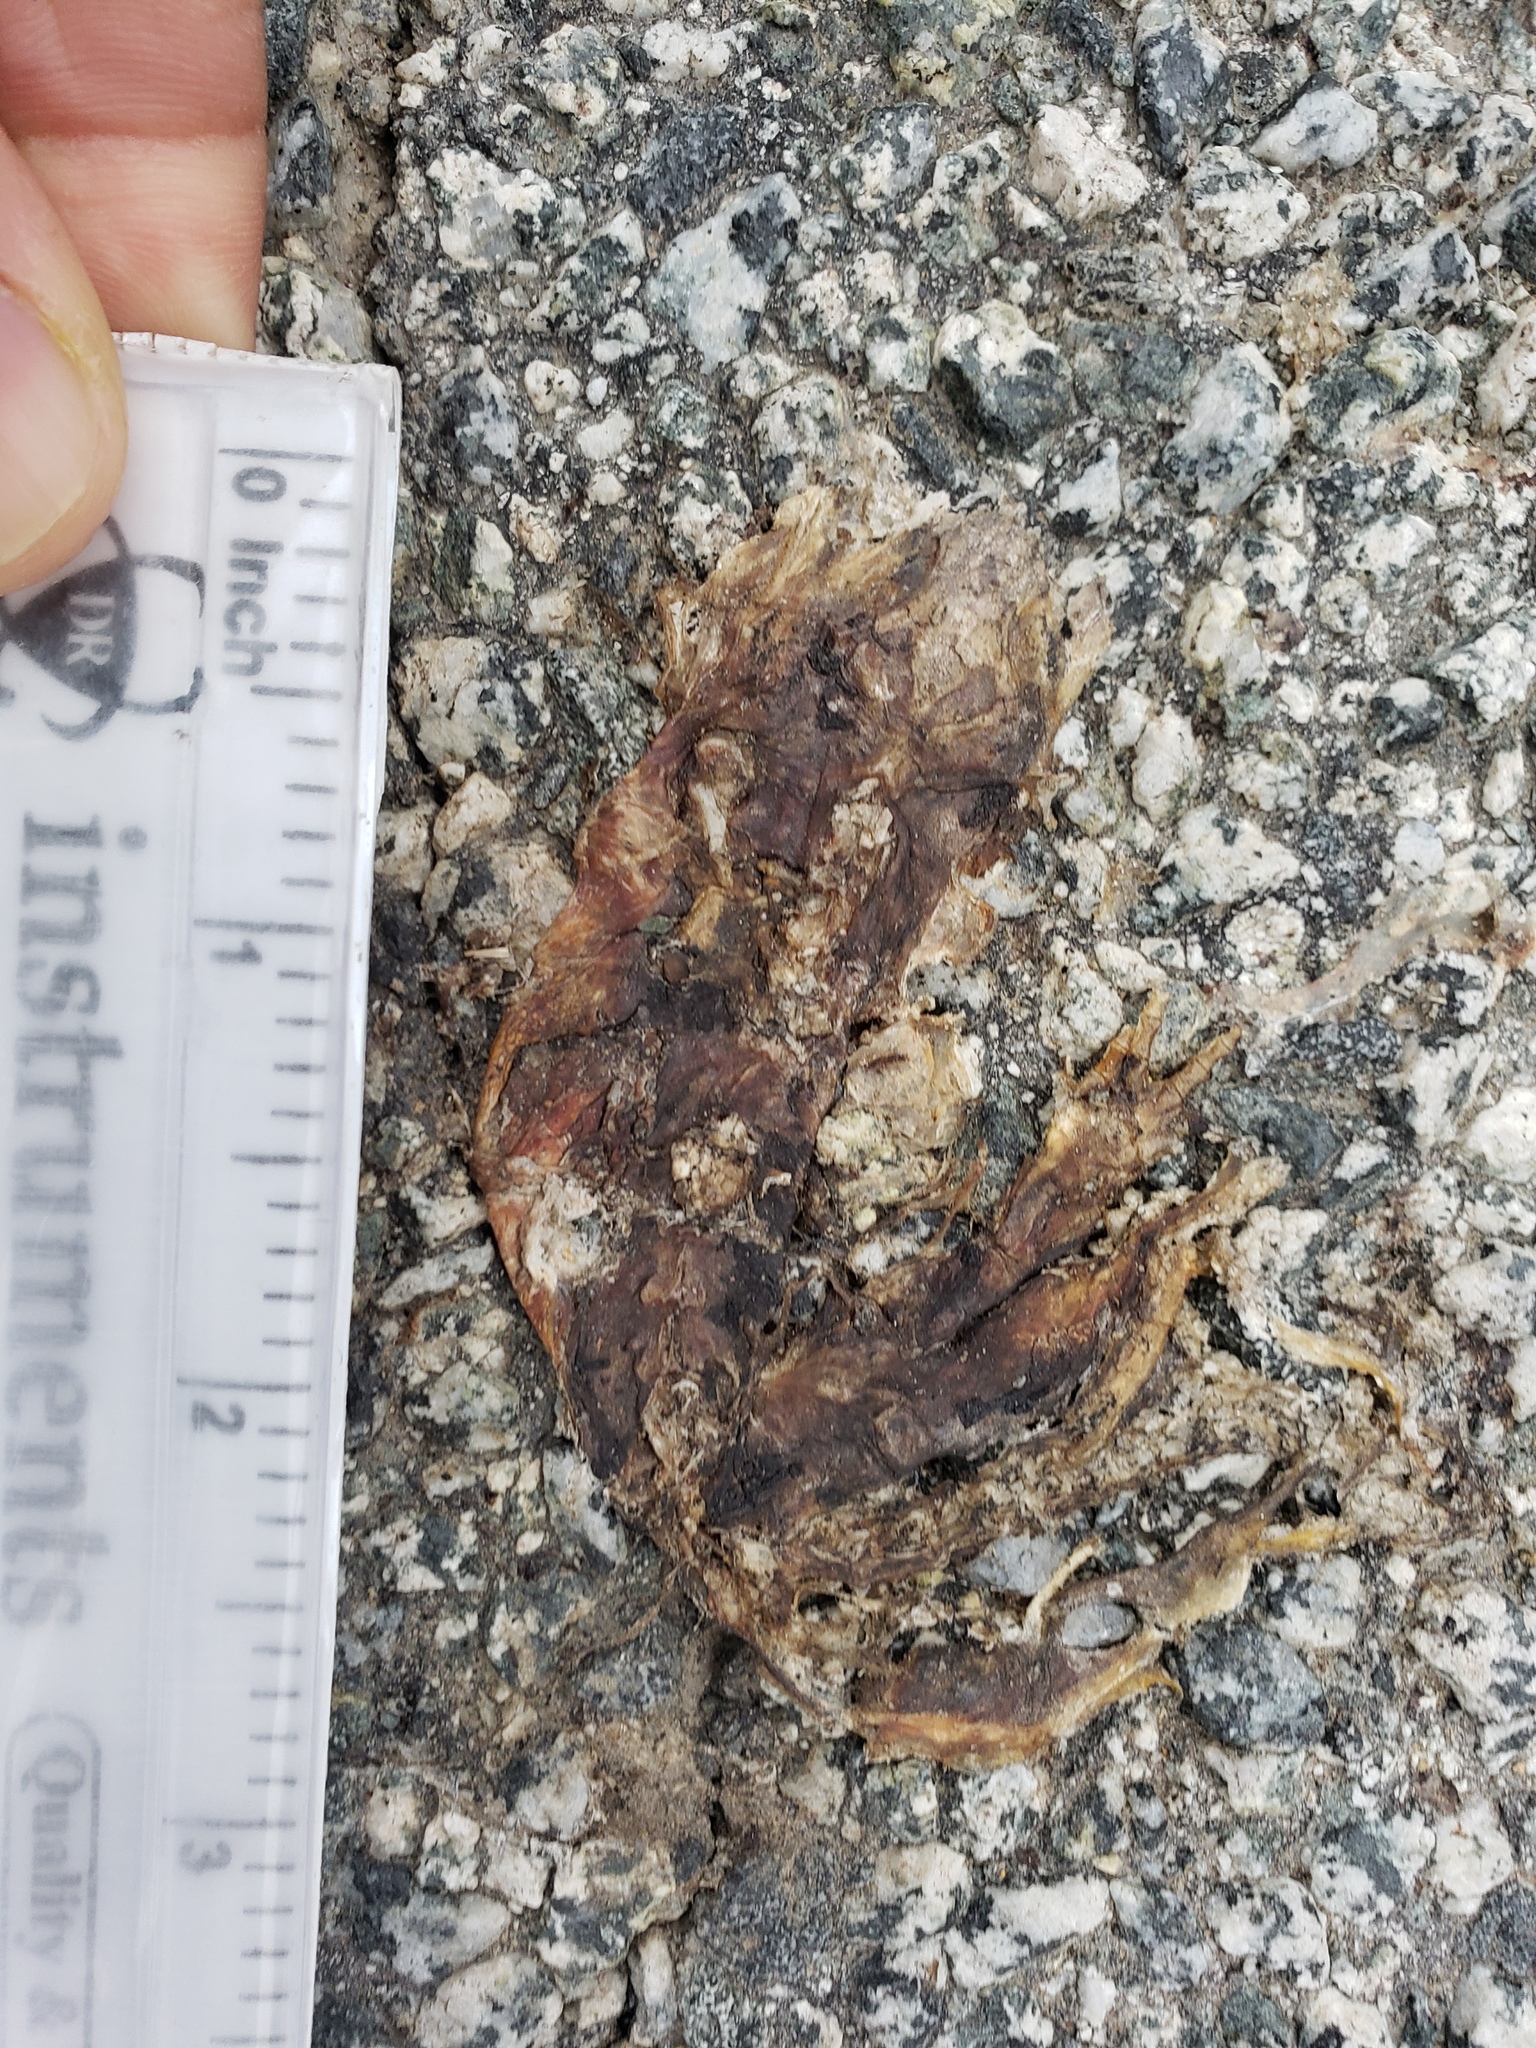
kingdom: Animalia
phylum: Chordata
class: Amphibia
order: Caudata
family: Salamandridae
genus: Taricha
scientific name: Taricha
